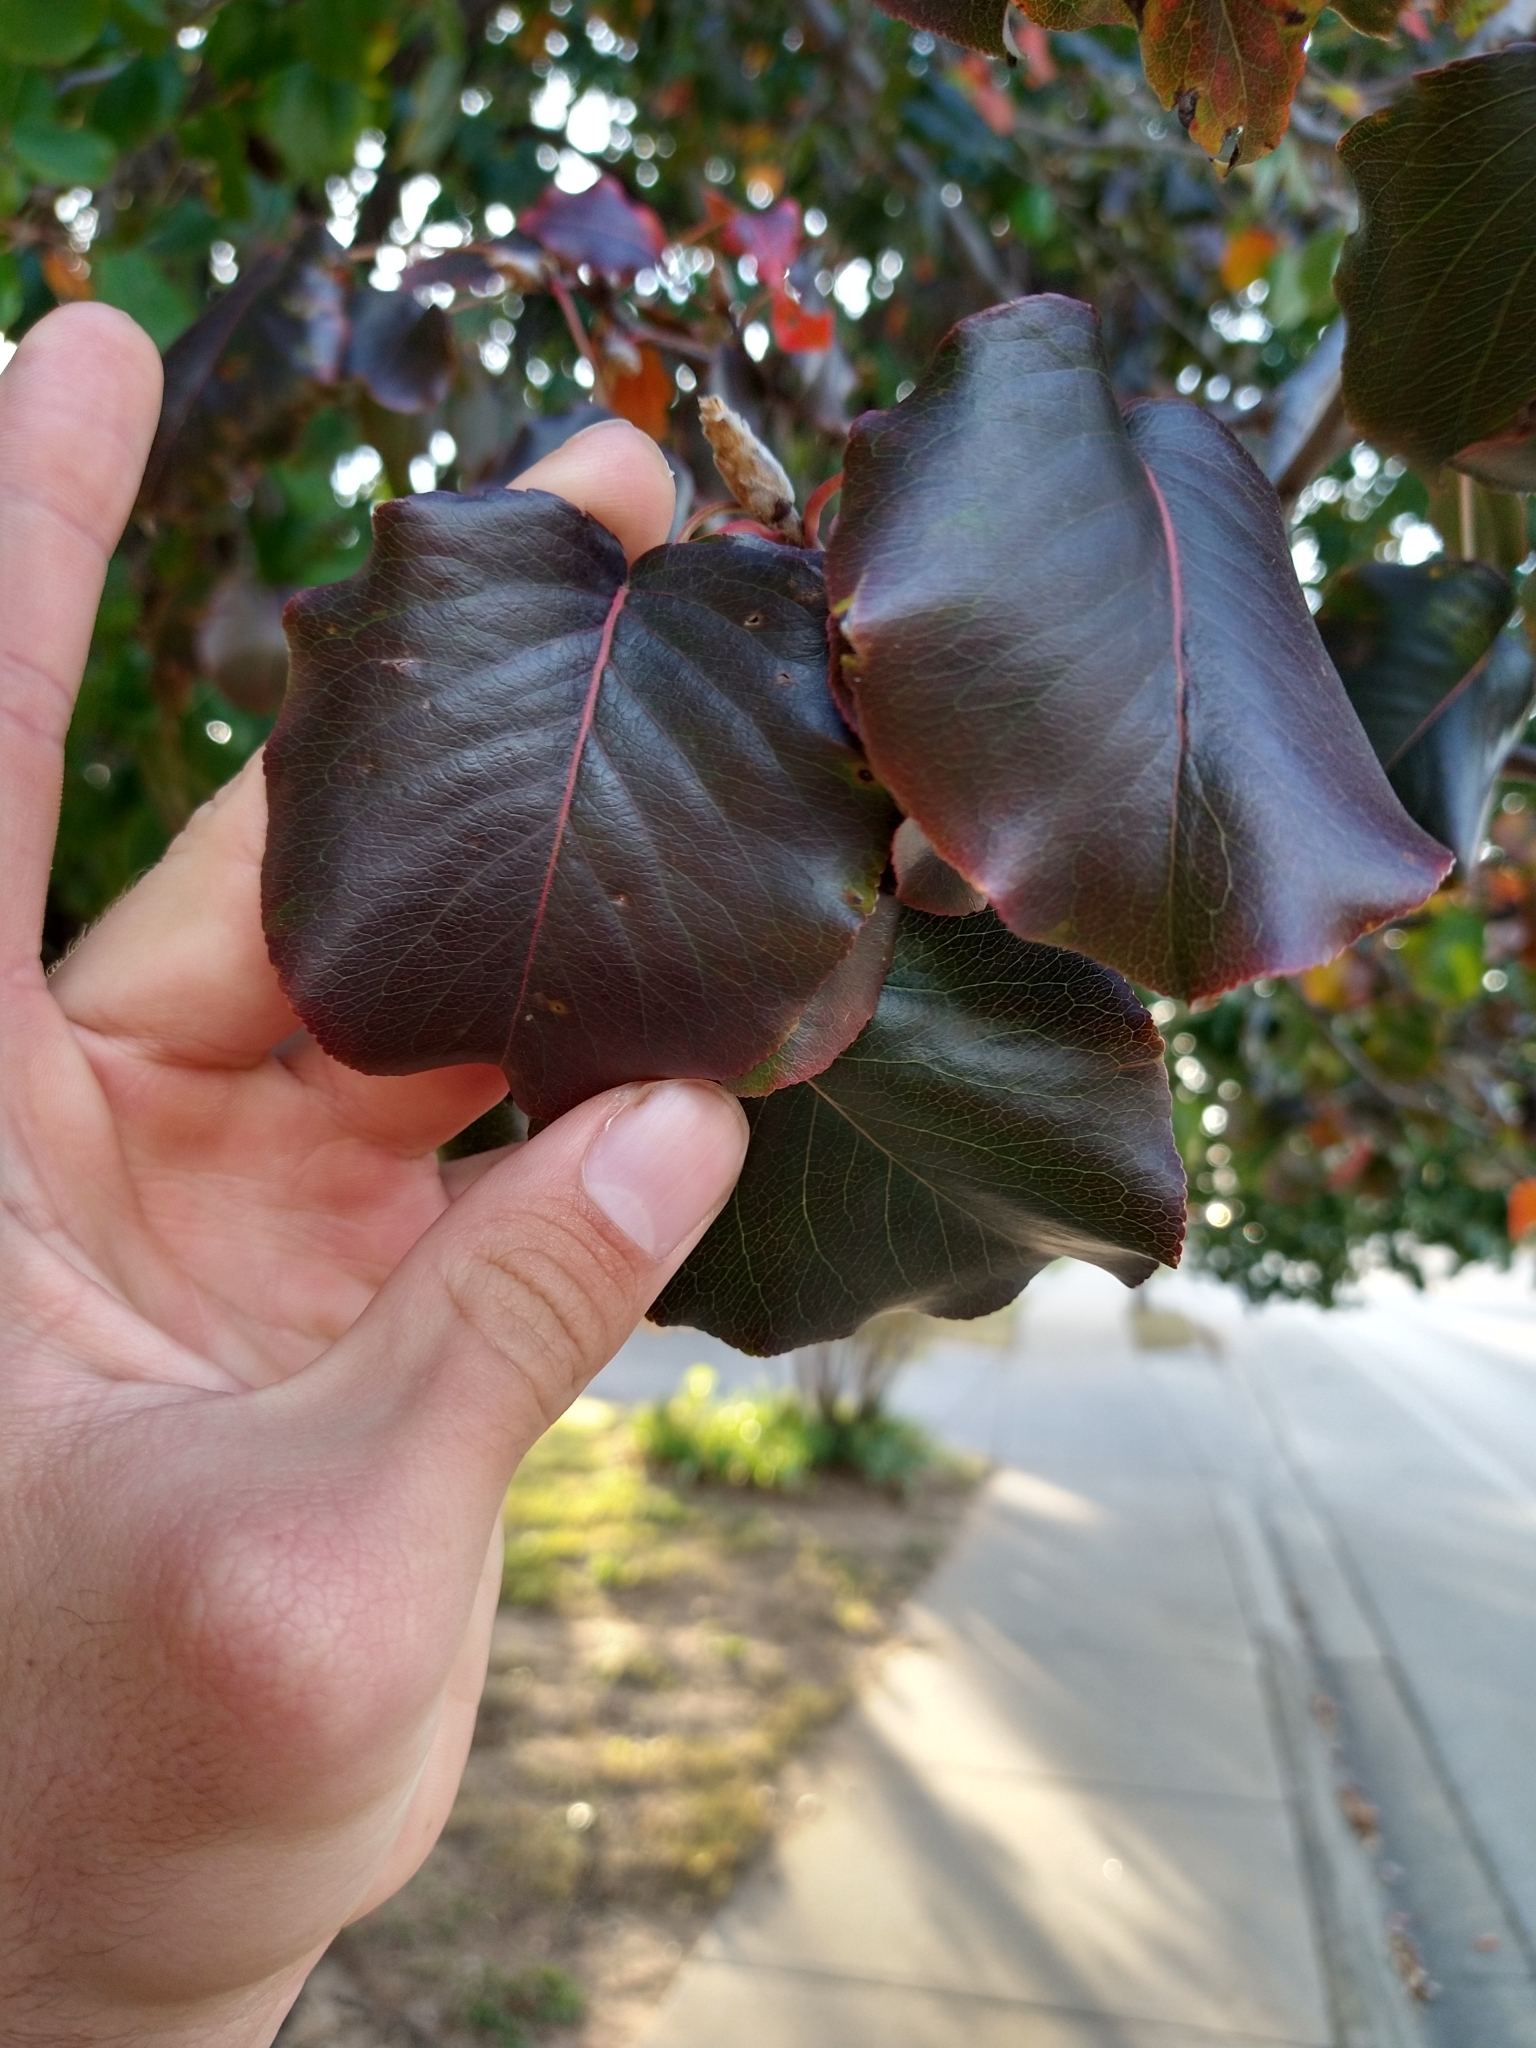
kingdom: Plantae
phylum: Tracheophyta
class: Magnoliopsida
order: Rosales
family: Rosaceae
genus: Pyrus
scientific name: Pyrus calleryana
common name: Callery pear
